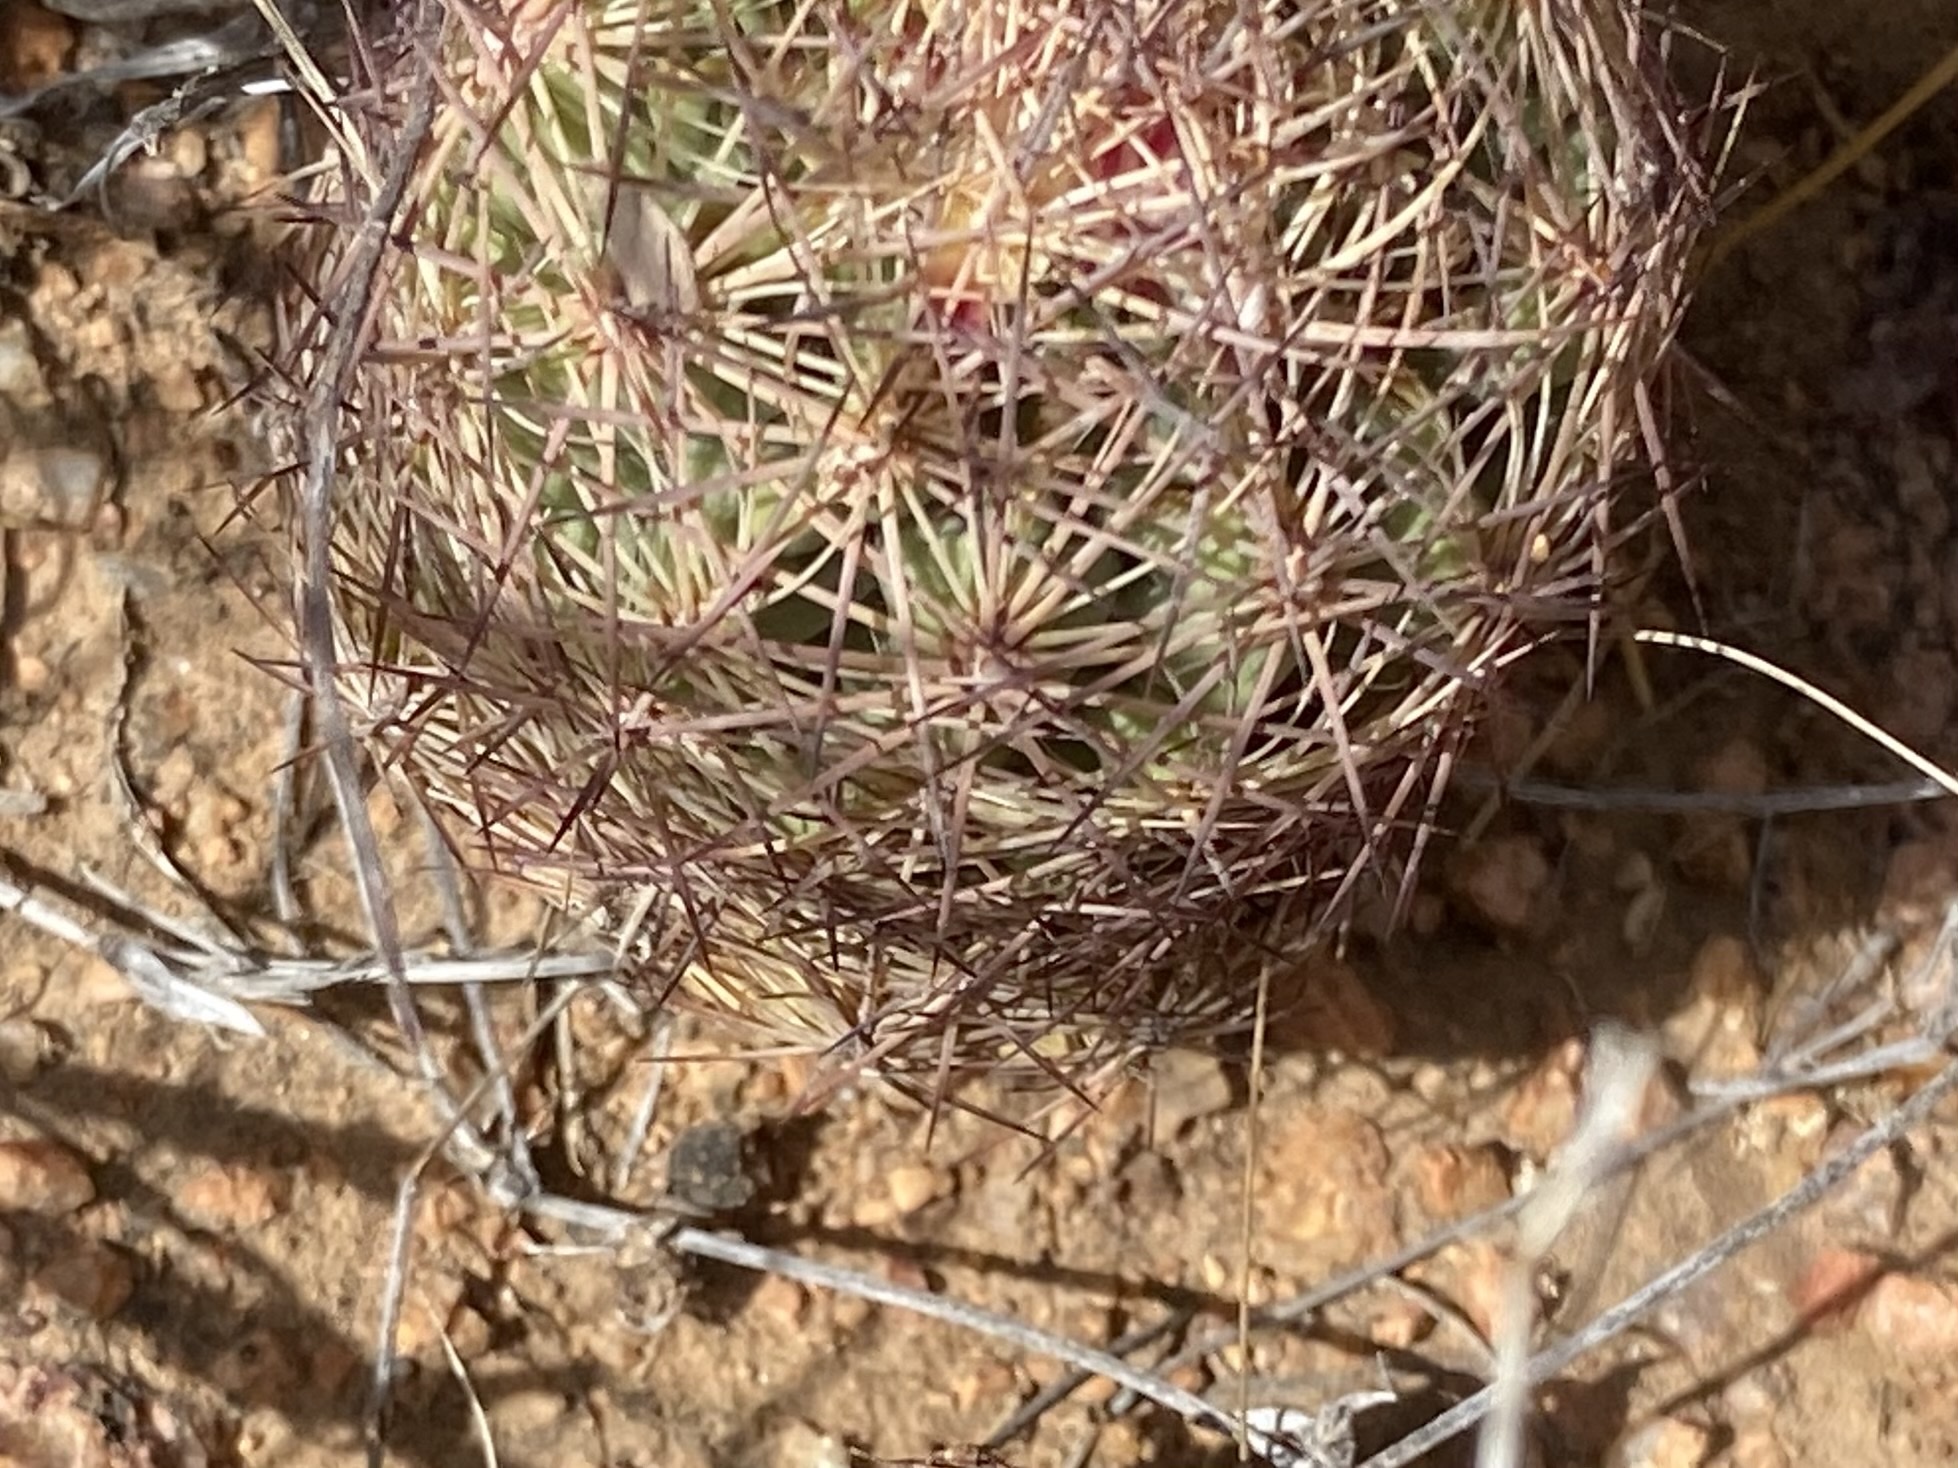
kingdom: Plantae
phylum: Tracheophyta
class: Magnoliopsida
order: Caryophyllales
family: Cactaceae
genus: Sclerocactus
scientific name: Sclerocactus intertextus
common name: White fish-hook cactus
